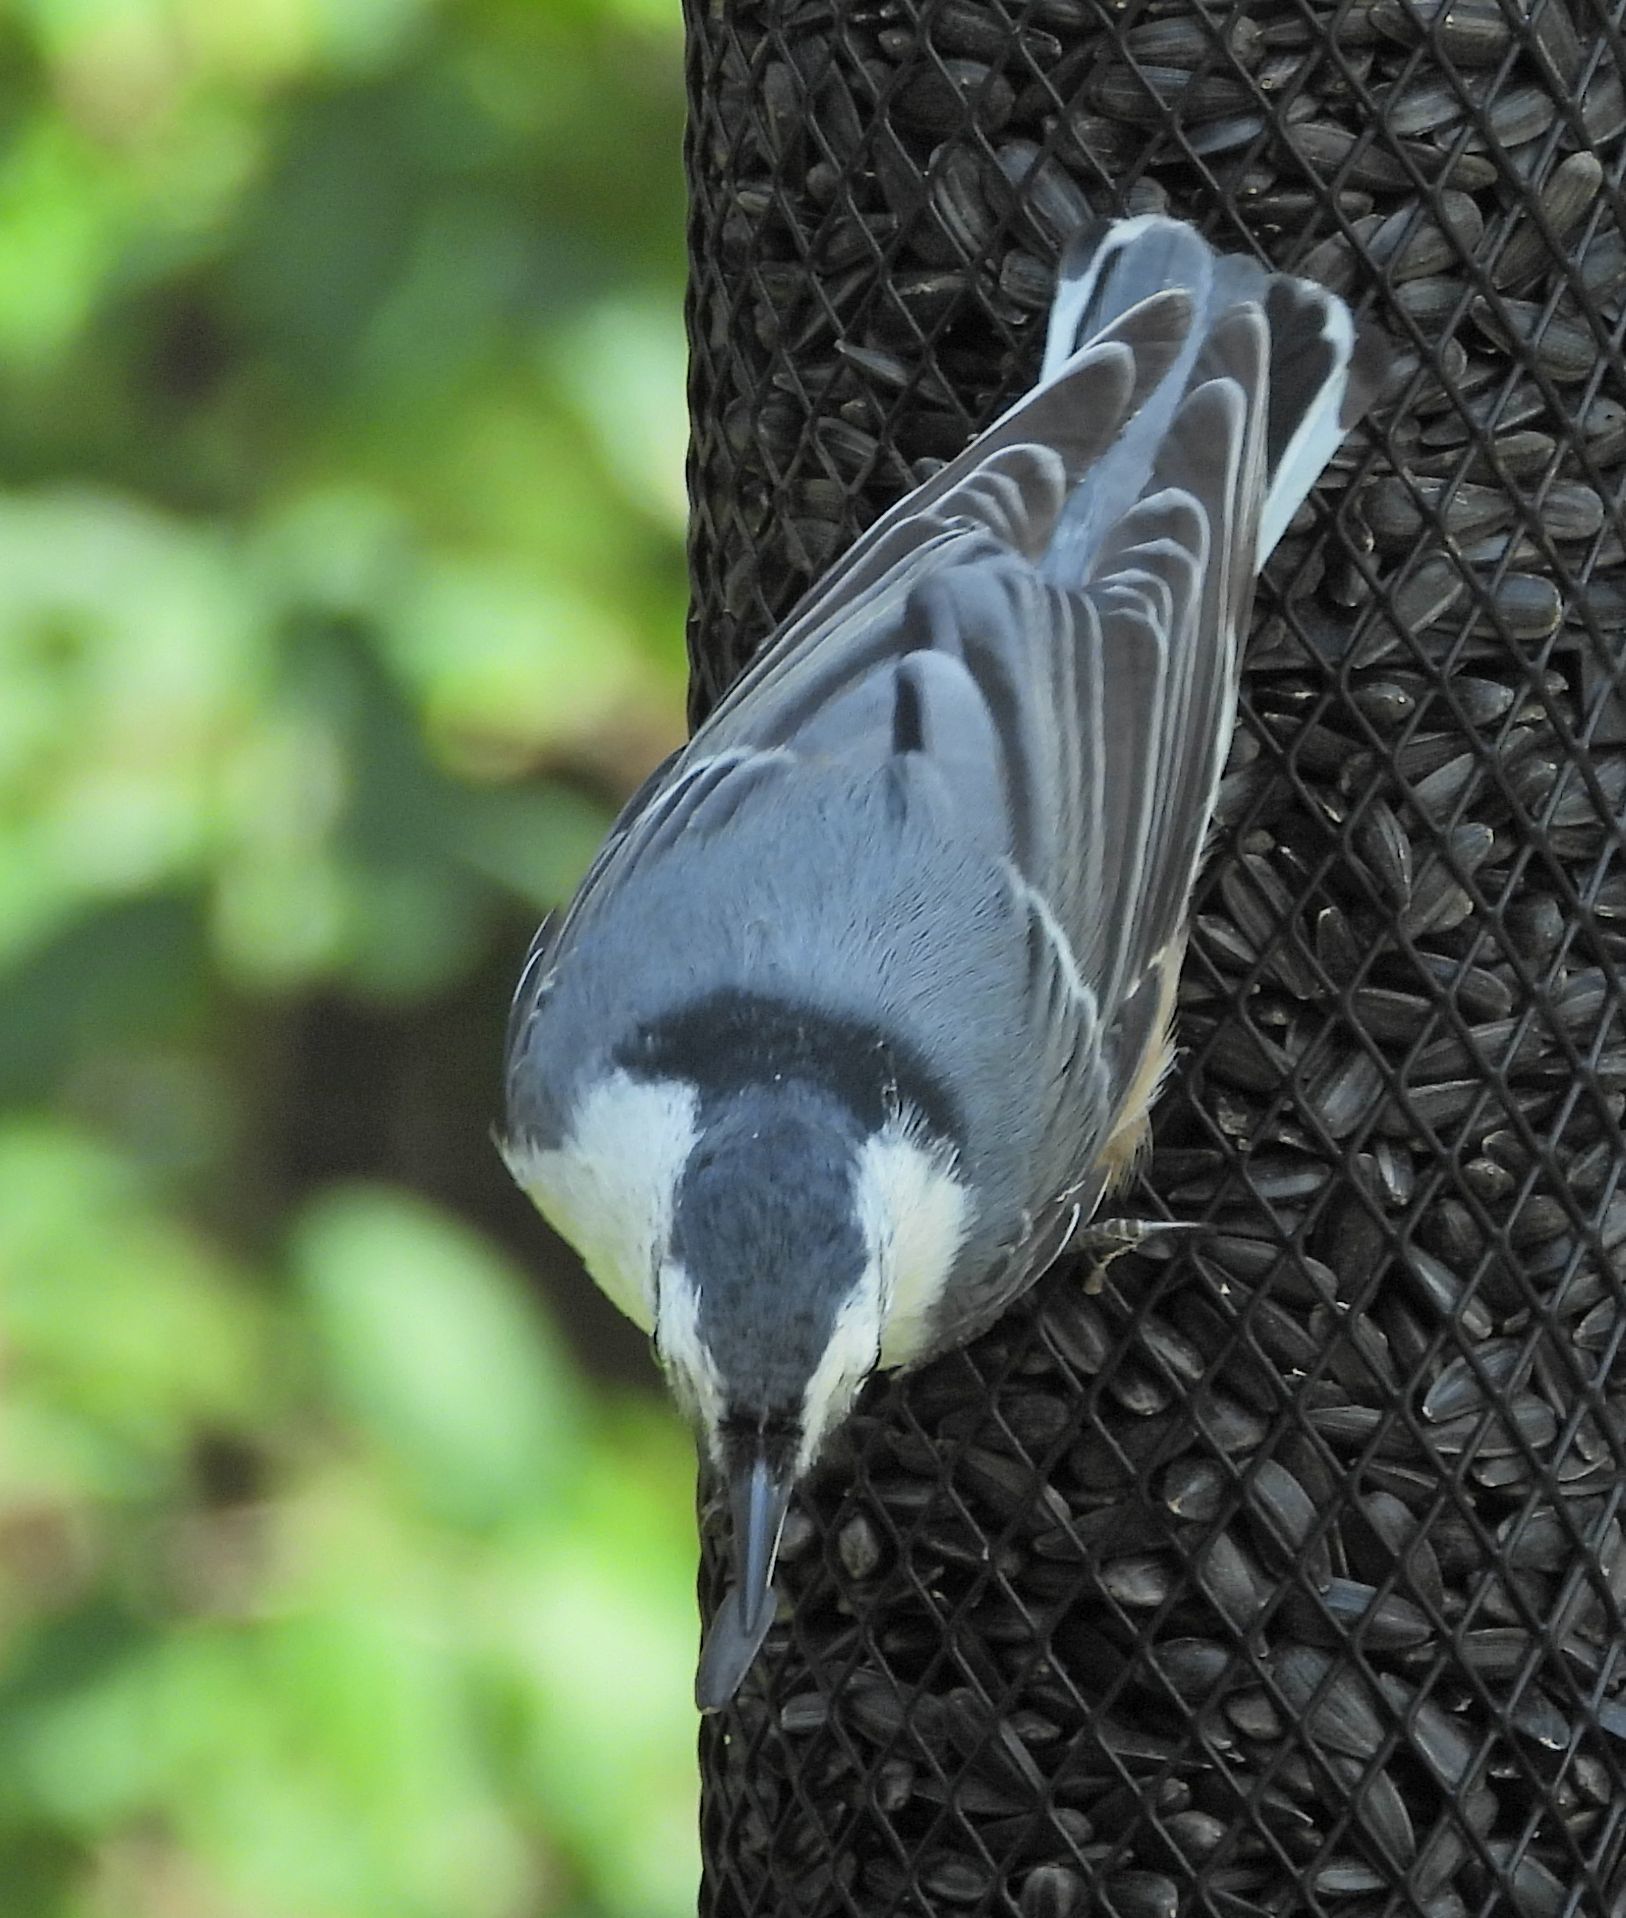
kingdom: Animalia
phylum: Chordata
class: Aves
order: Passeriformes
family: Sittidae
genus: Sitta
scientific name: Sitta carolinensis
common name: White-breasted nuthatch
